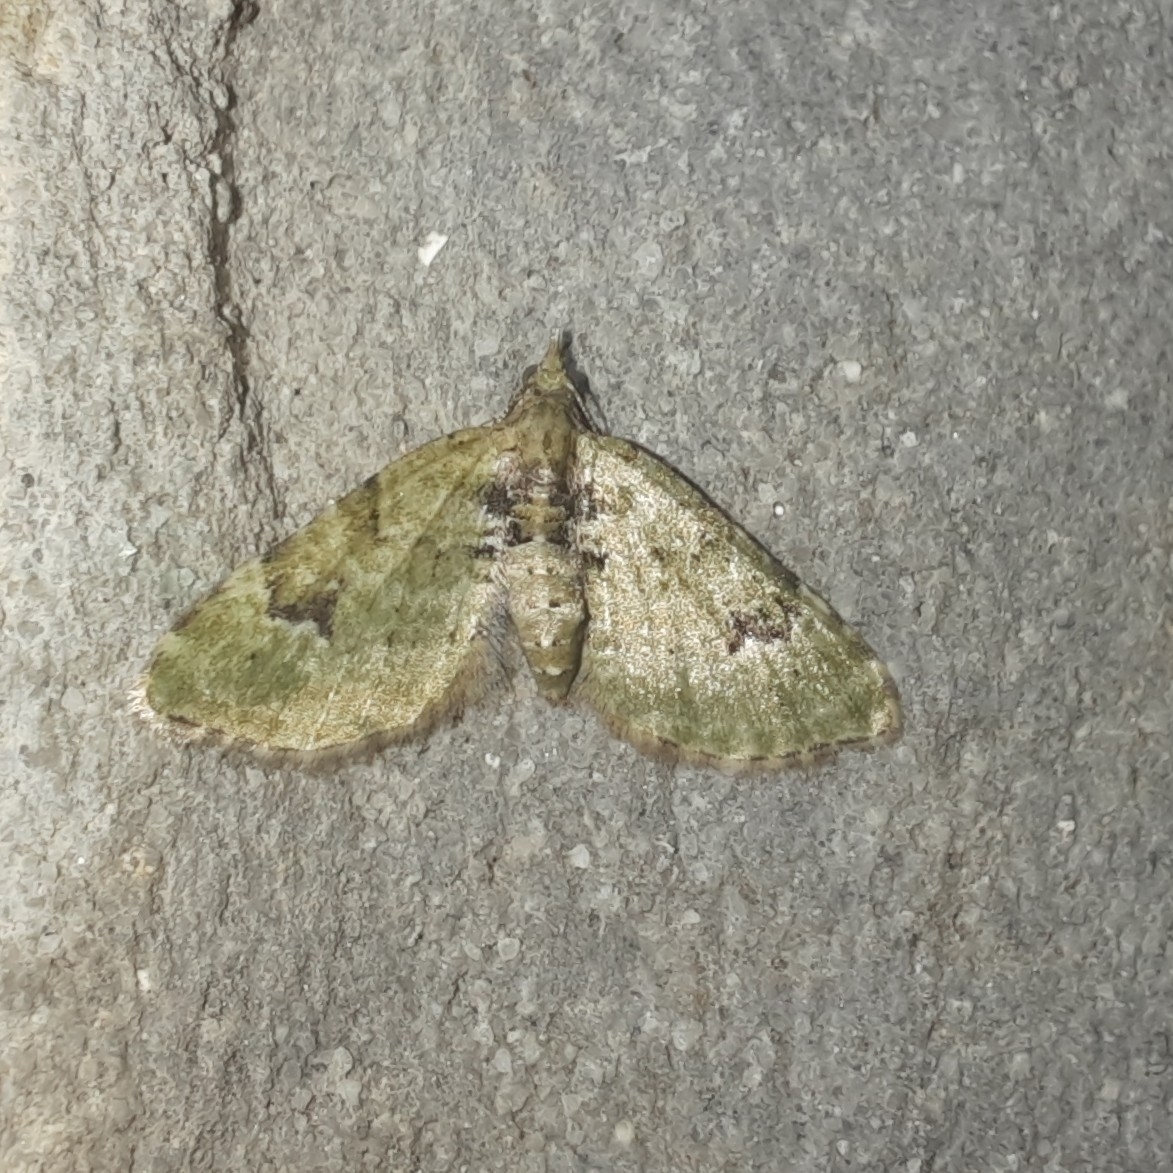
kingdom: Animalia
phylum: Arthropoda
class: Insecta
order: Lepidoptera
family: Geometridae
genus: Chloroclystis
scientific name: Chloroclystis v-ata
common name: V-pug
